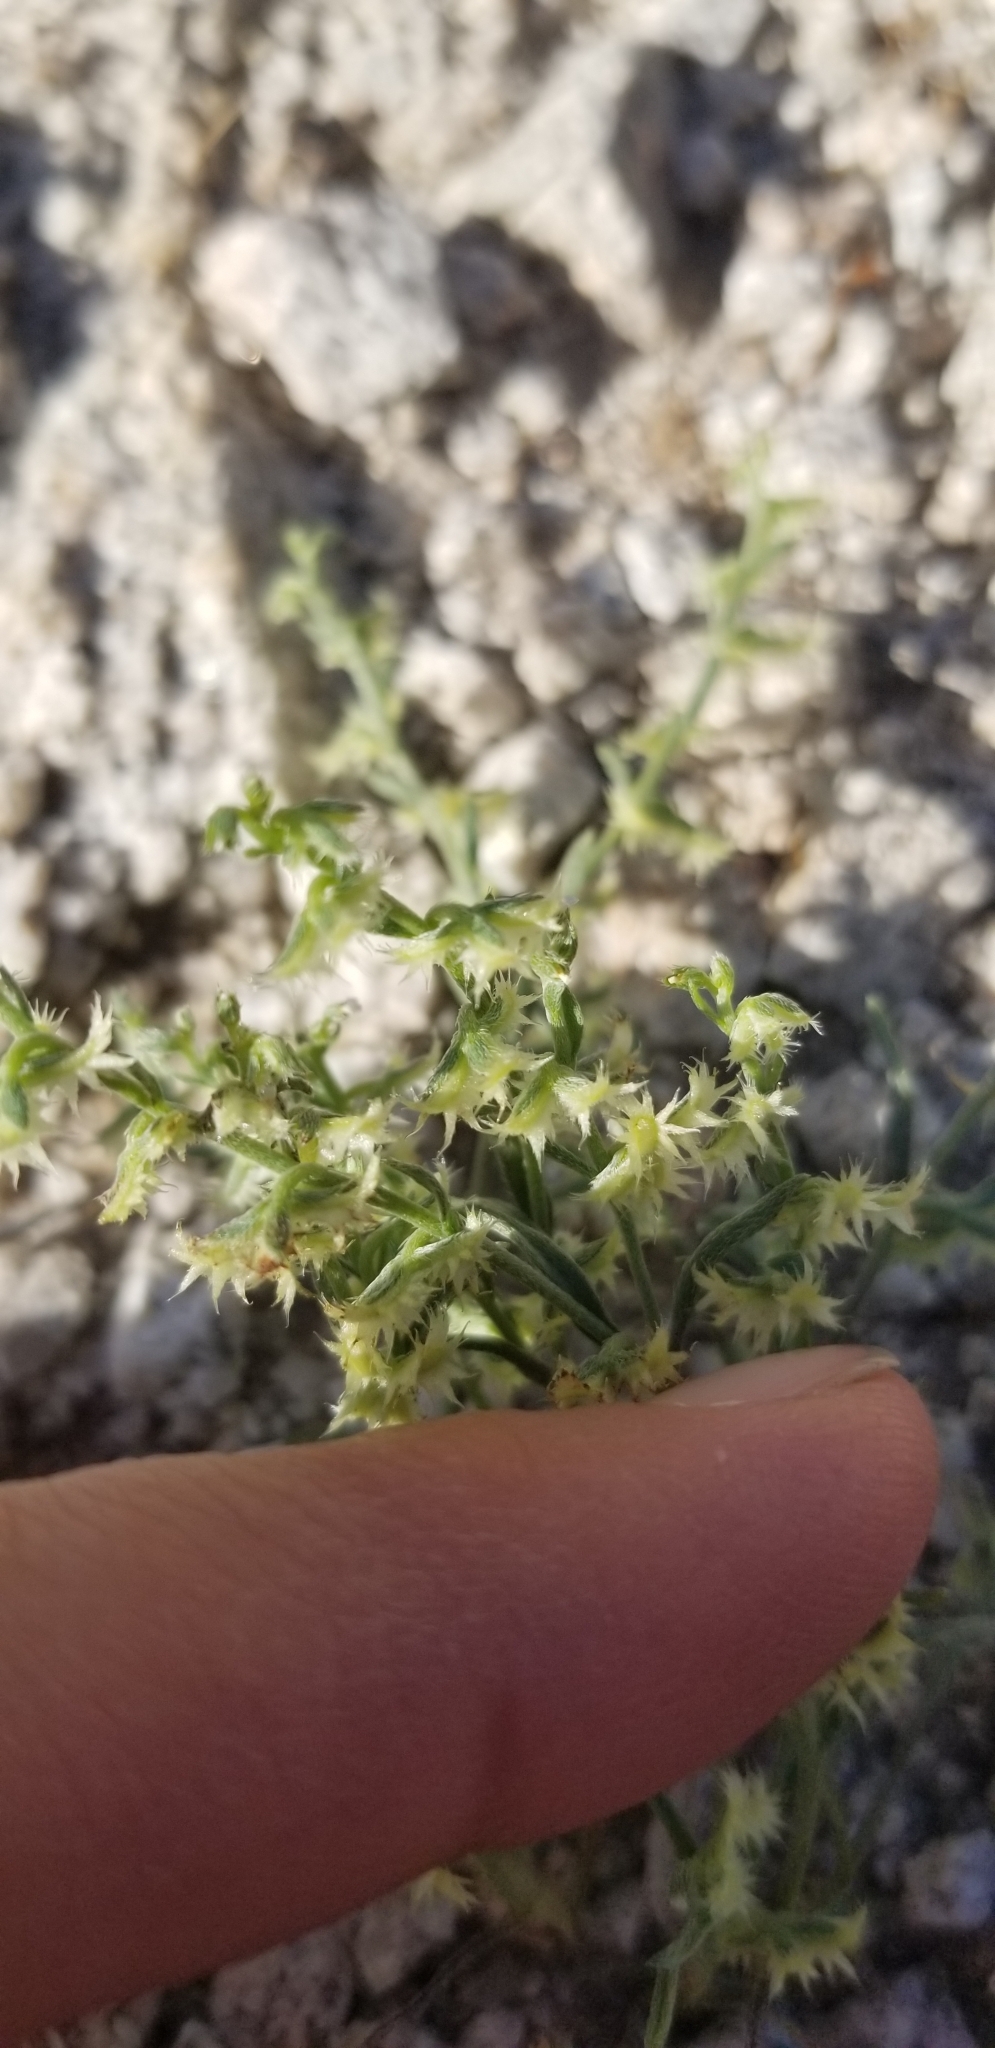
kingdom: Plantae
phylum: Tracheophyta
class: Magnoliopsida
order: Boraginales
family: Boraginaceae
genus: Pectocarya
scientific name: Pectocarya platycarpa
